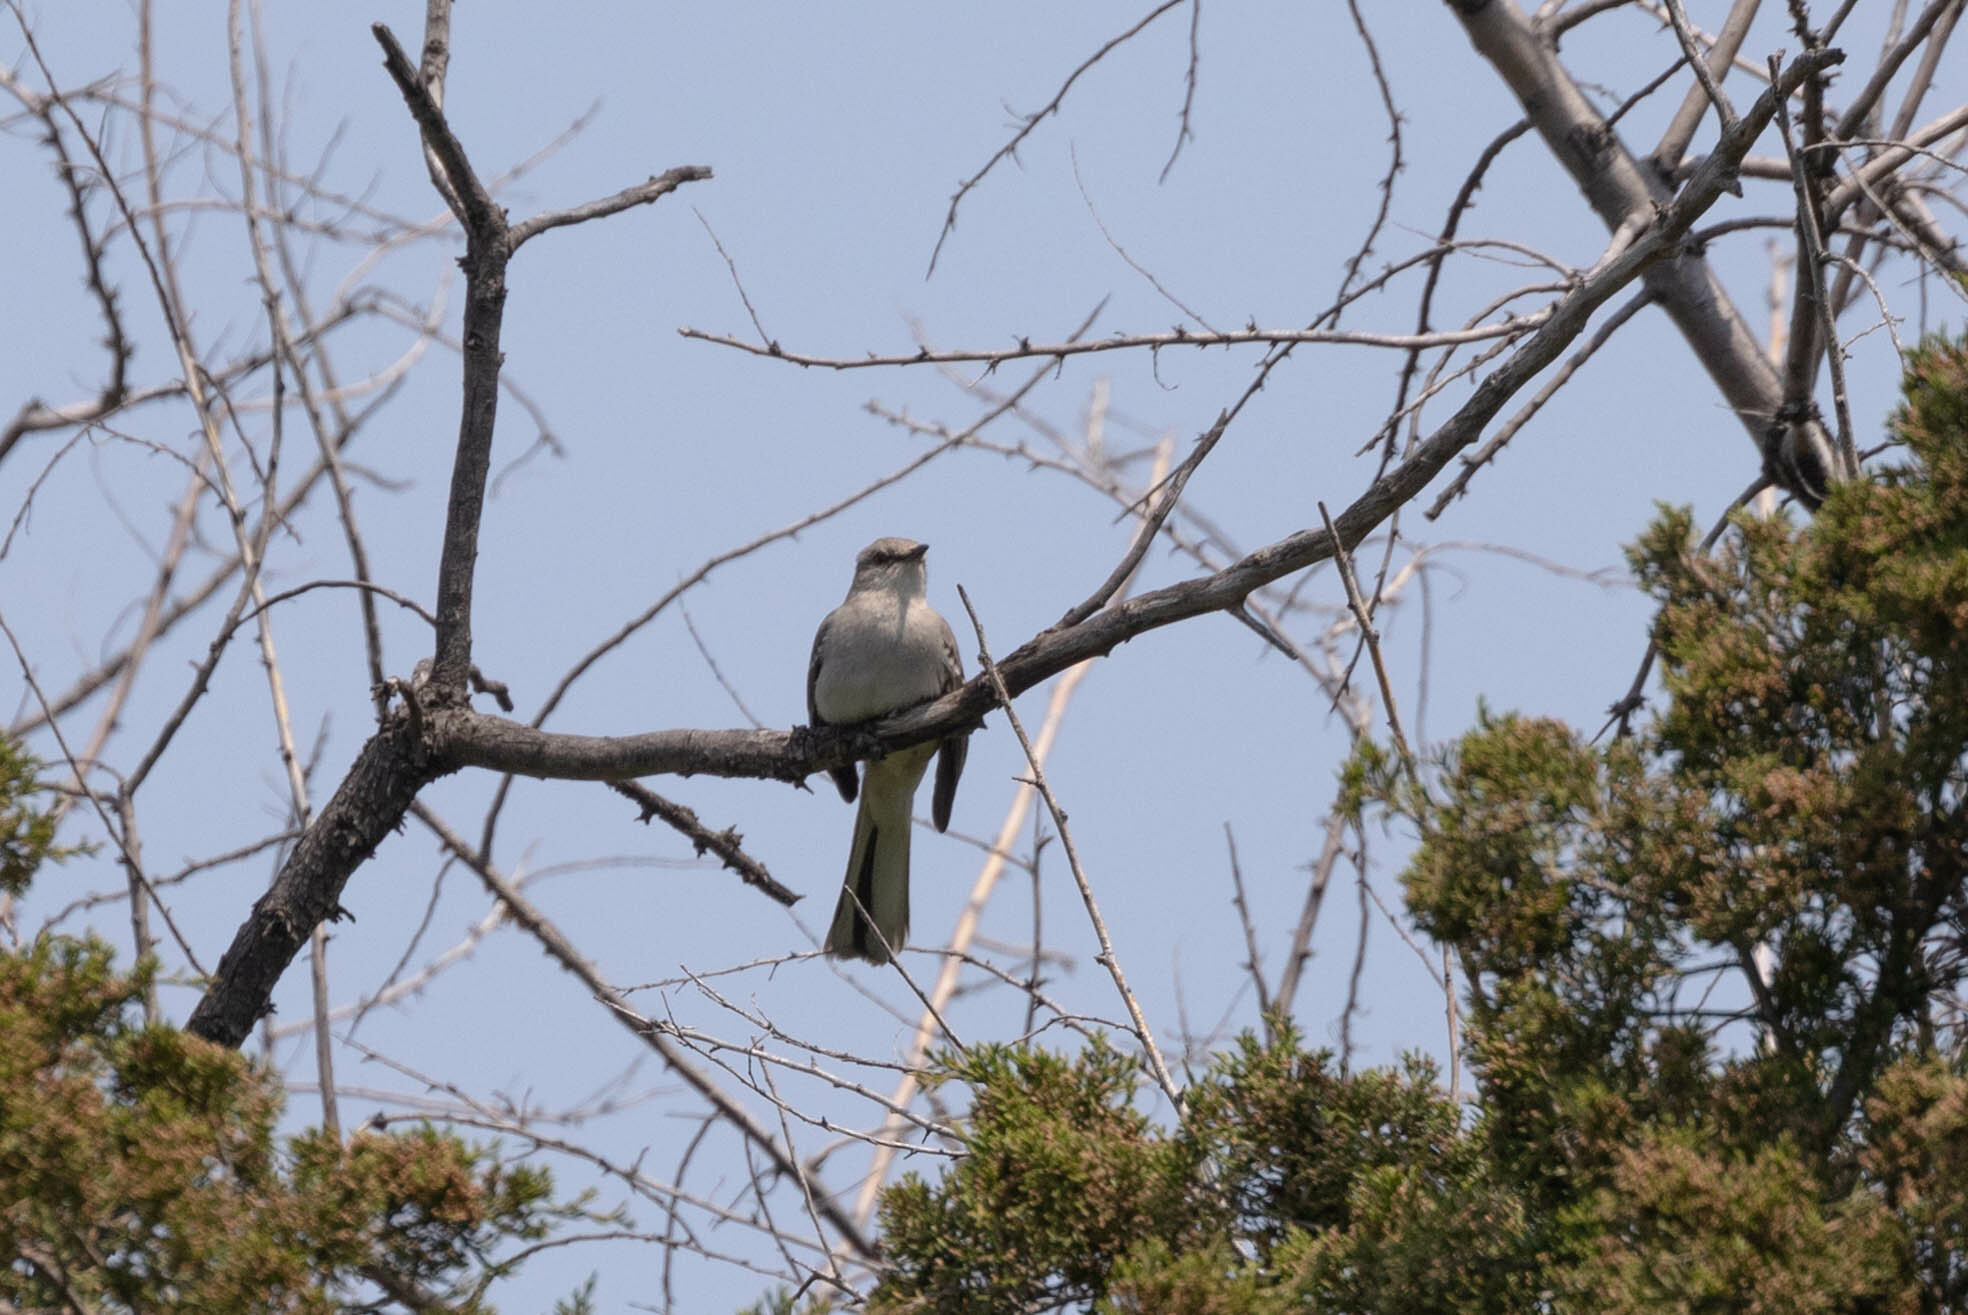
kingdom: Animalia
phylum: Chordata
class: Aves
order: Passeriformes
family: Mimidae
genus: Mimus
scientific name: Mimus polyglottos
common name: Northern mockingbird
